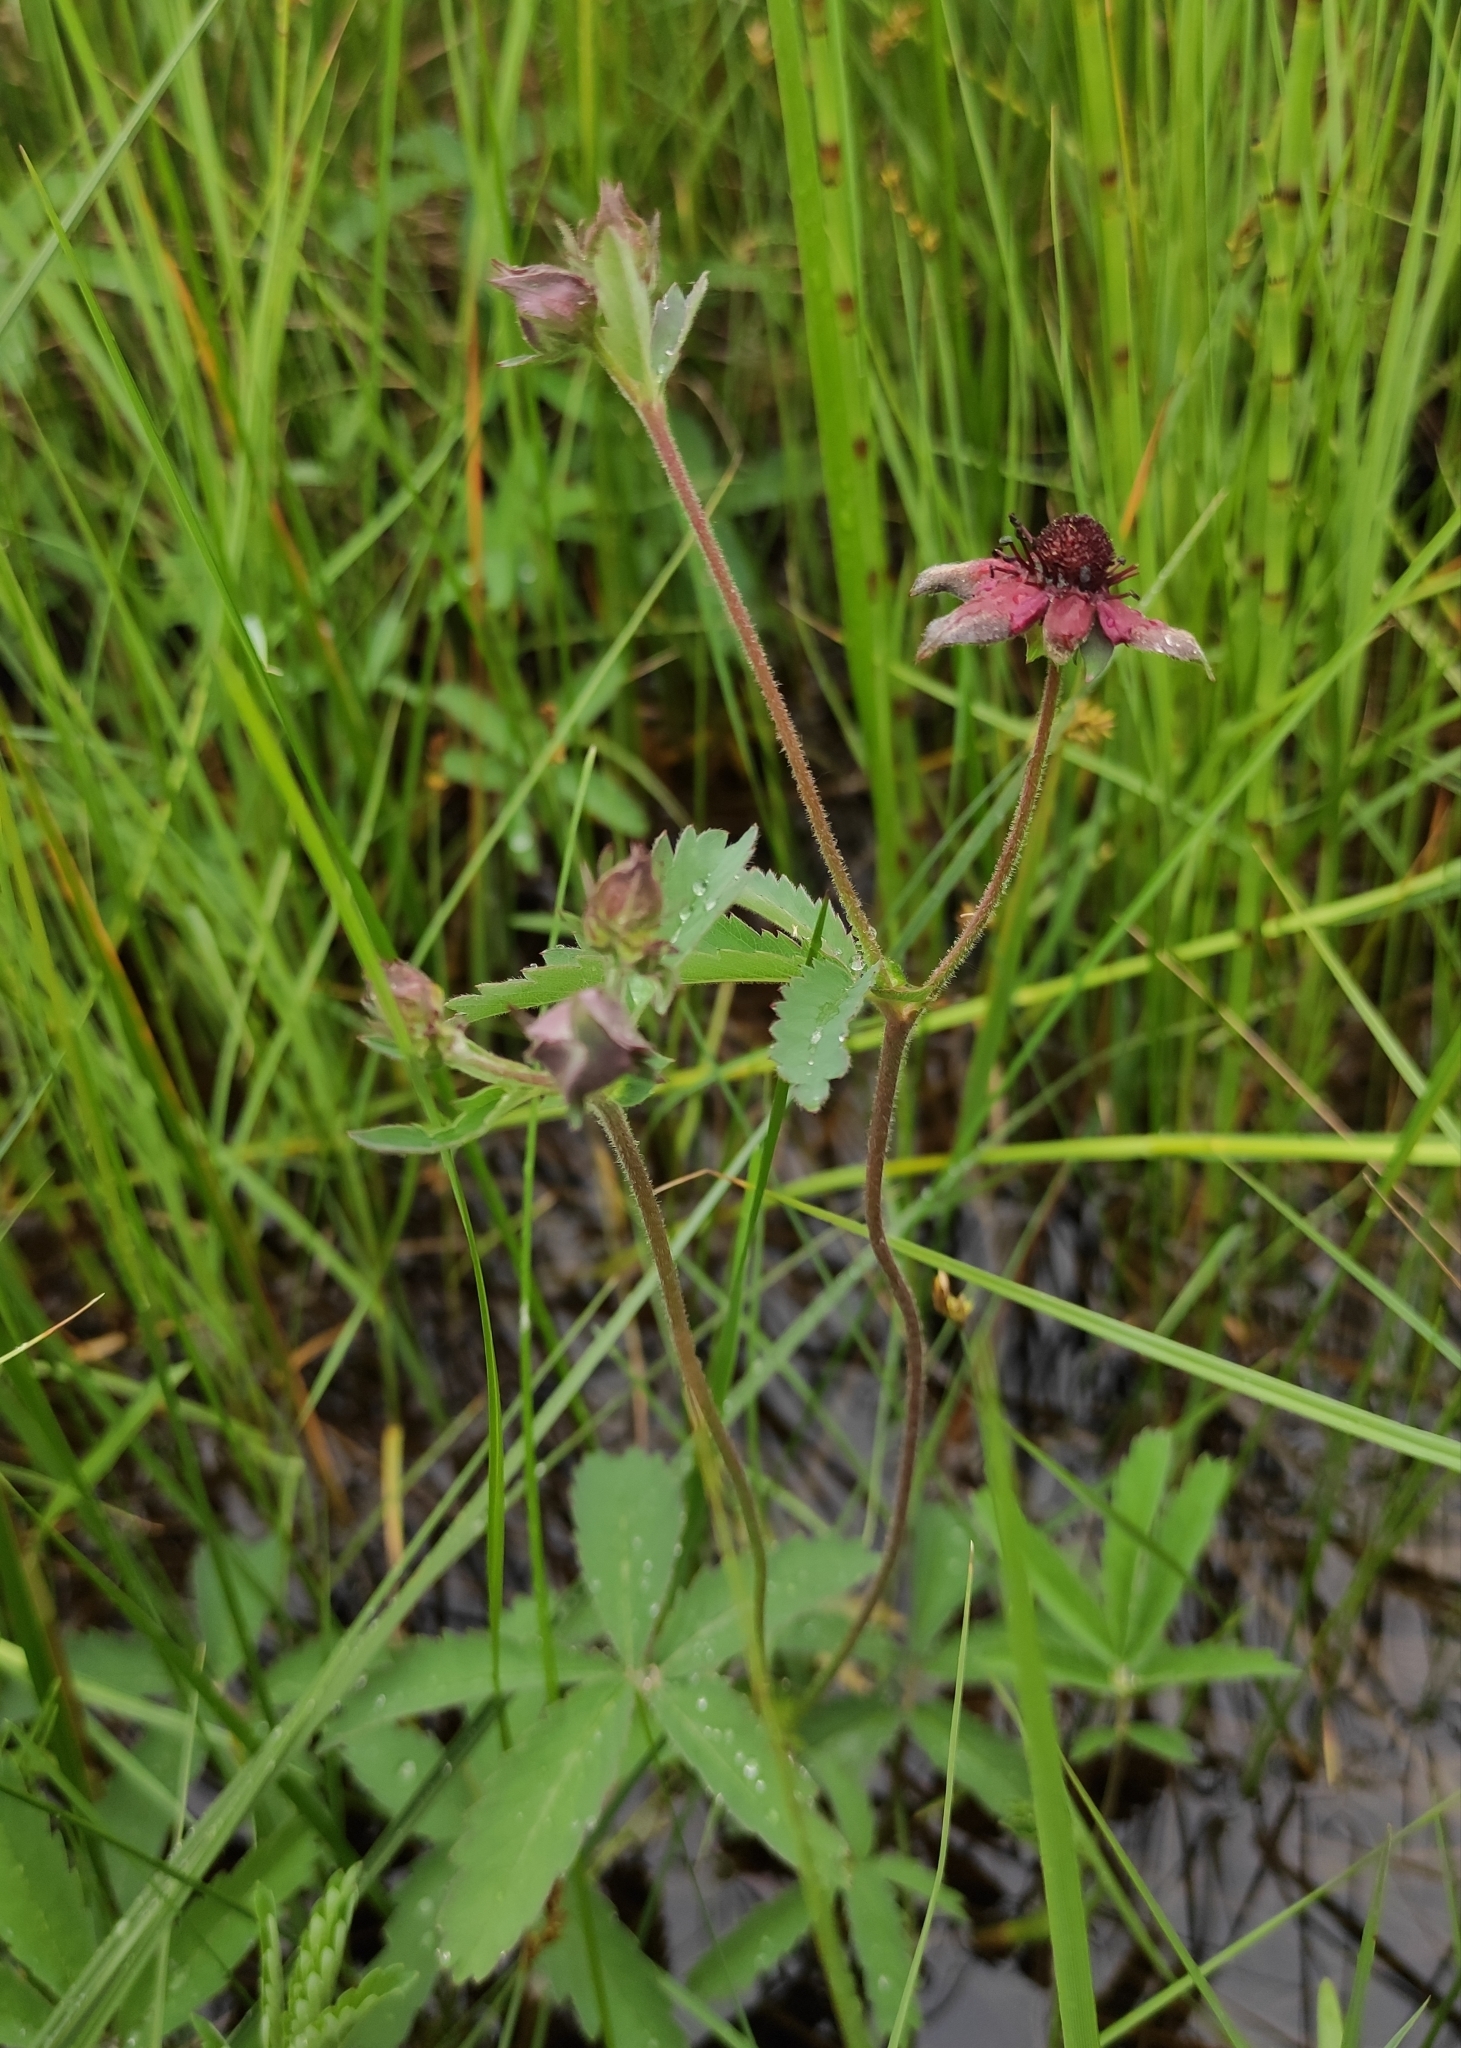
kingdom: Plantae
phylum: Tracheophyta
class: Magnoliopsida
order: Rosales
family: Rosaceae
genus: Comarum
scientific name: Comarum palustre
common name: Marsh cinquefoil
